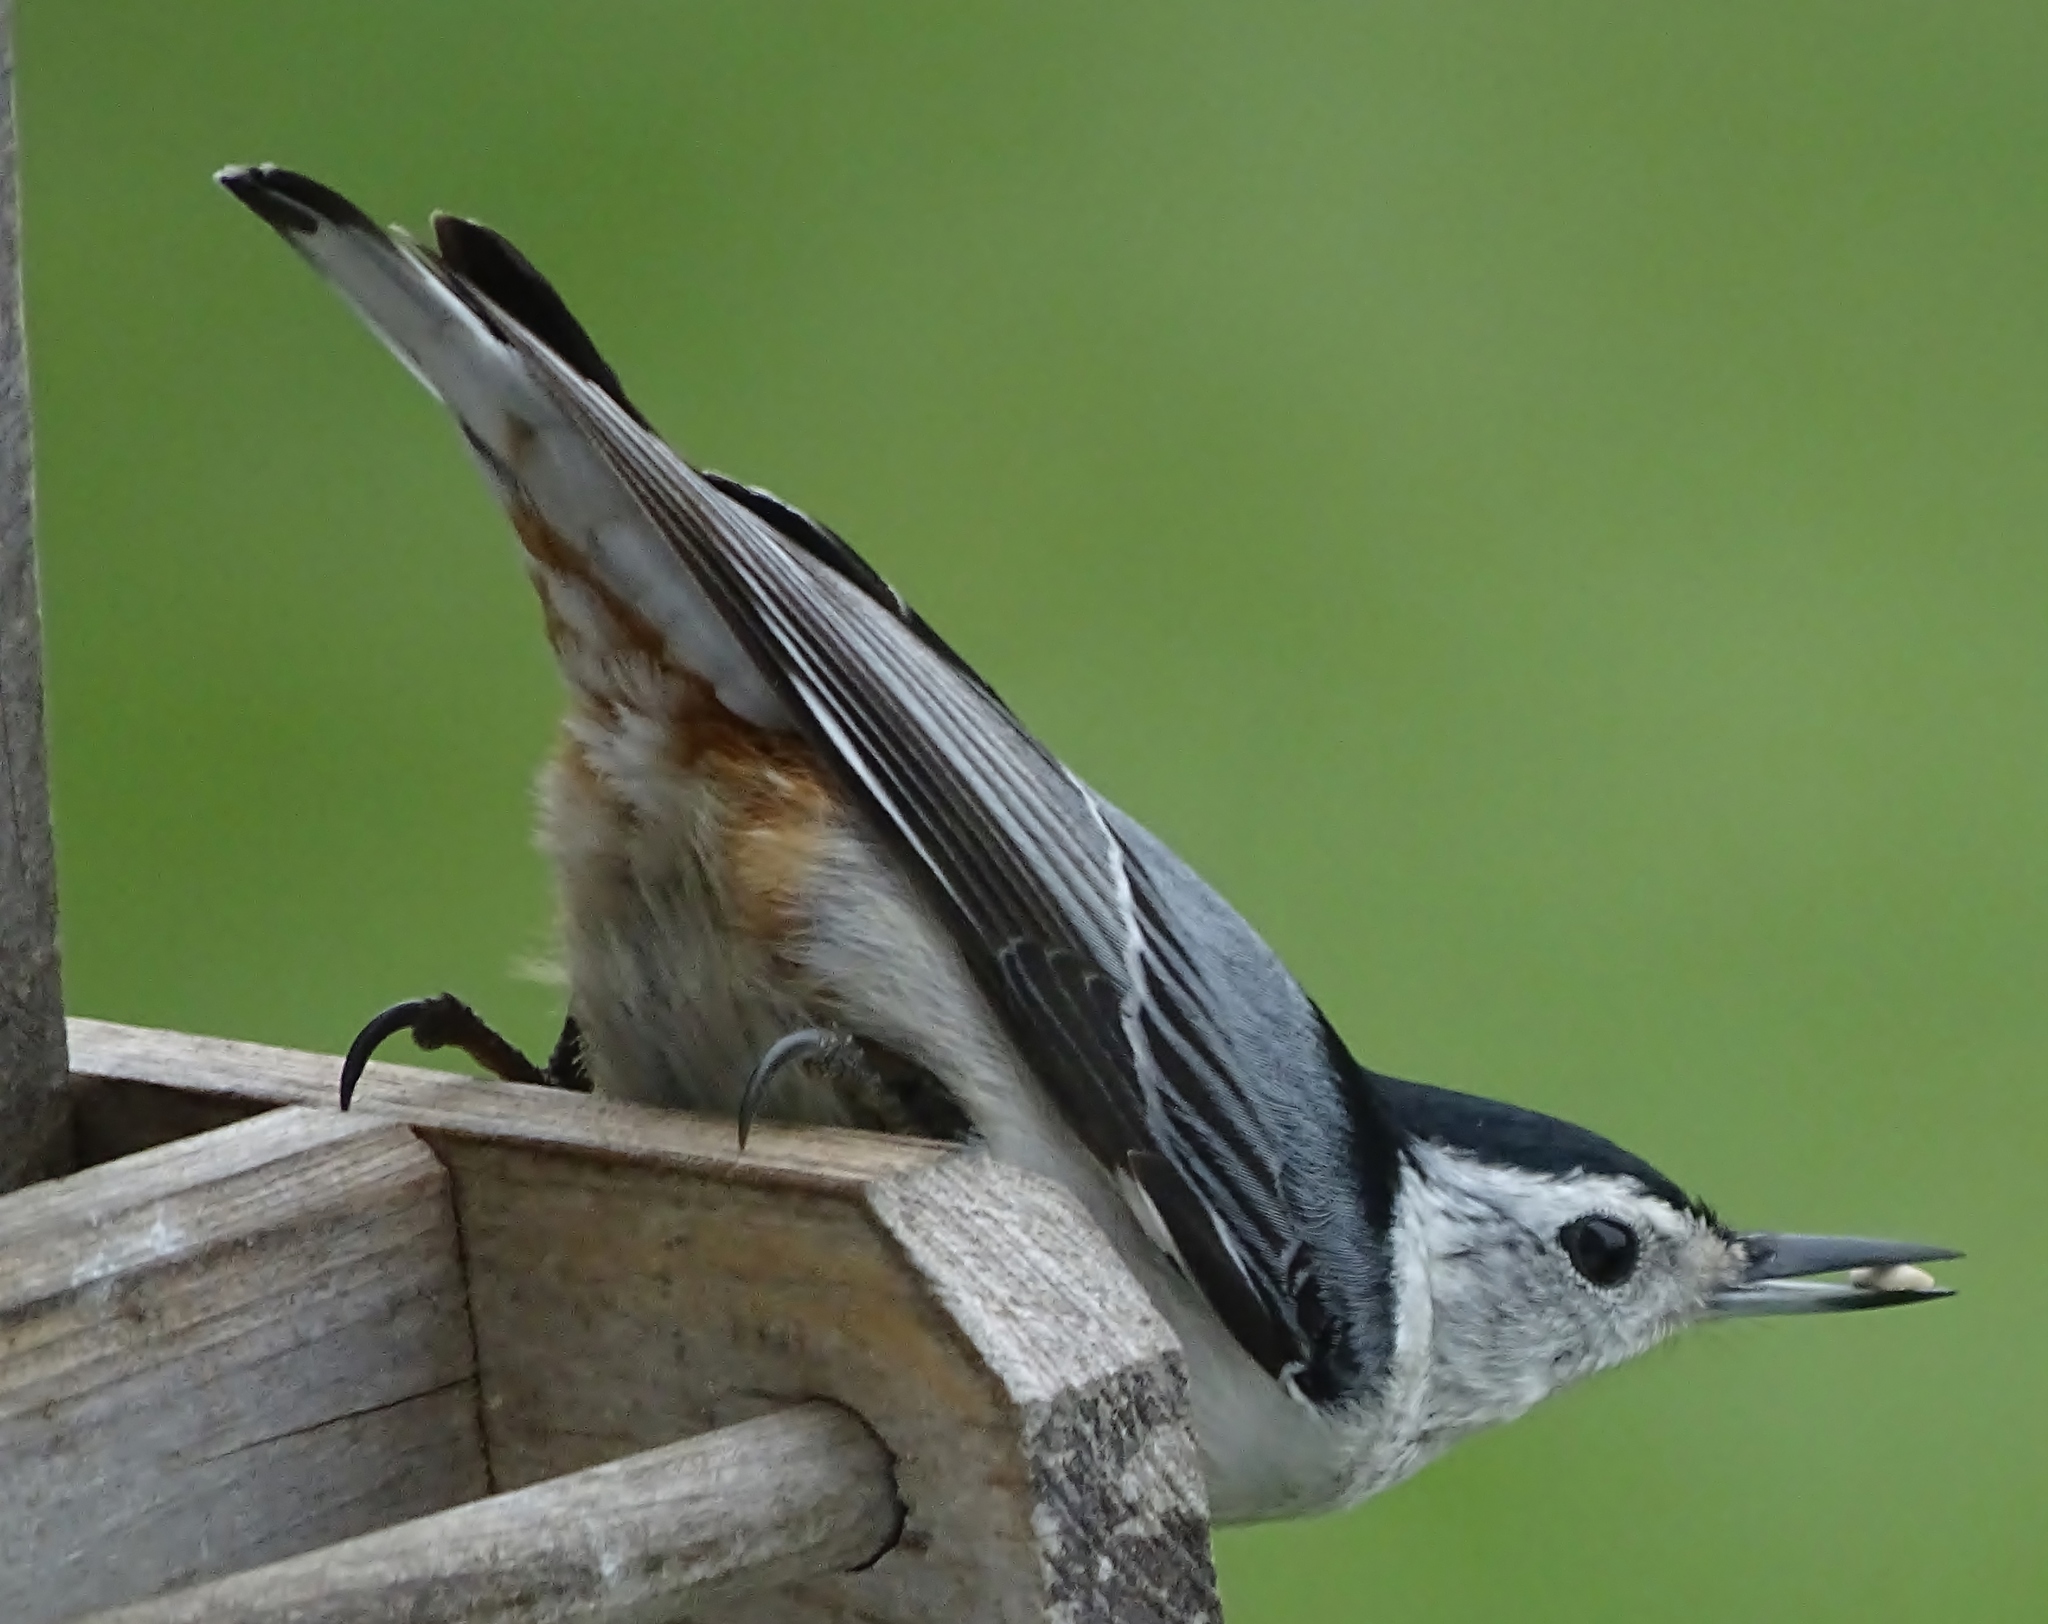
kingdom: Animalia
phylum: Chordata
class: Aves
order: Passeriformes
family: Sittidae
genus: Sitta
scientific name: Sitta carolinensis
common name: White-breasted nuthatch
